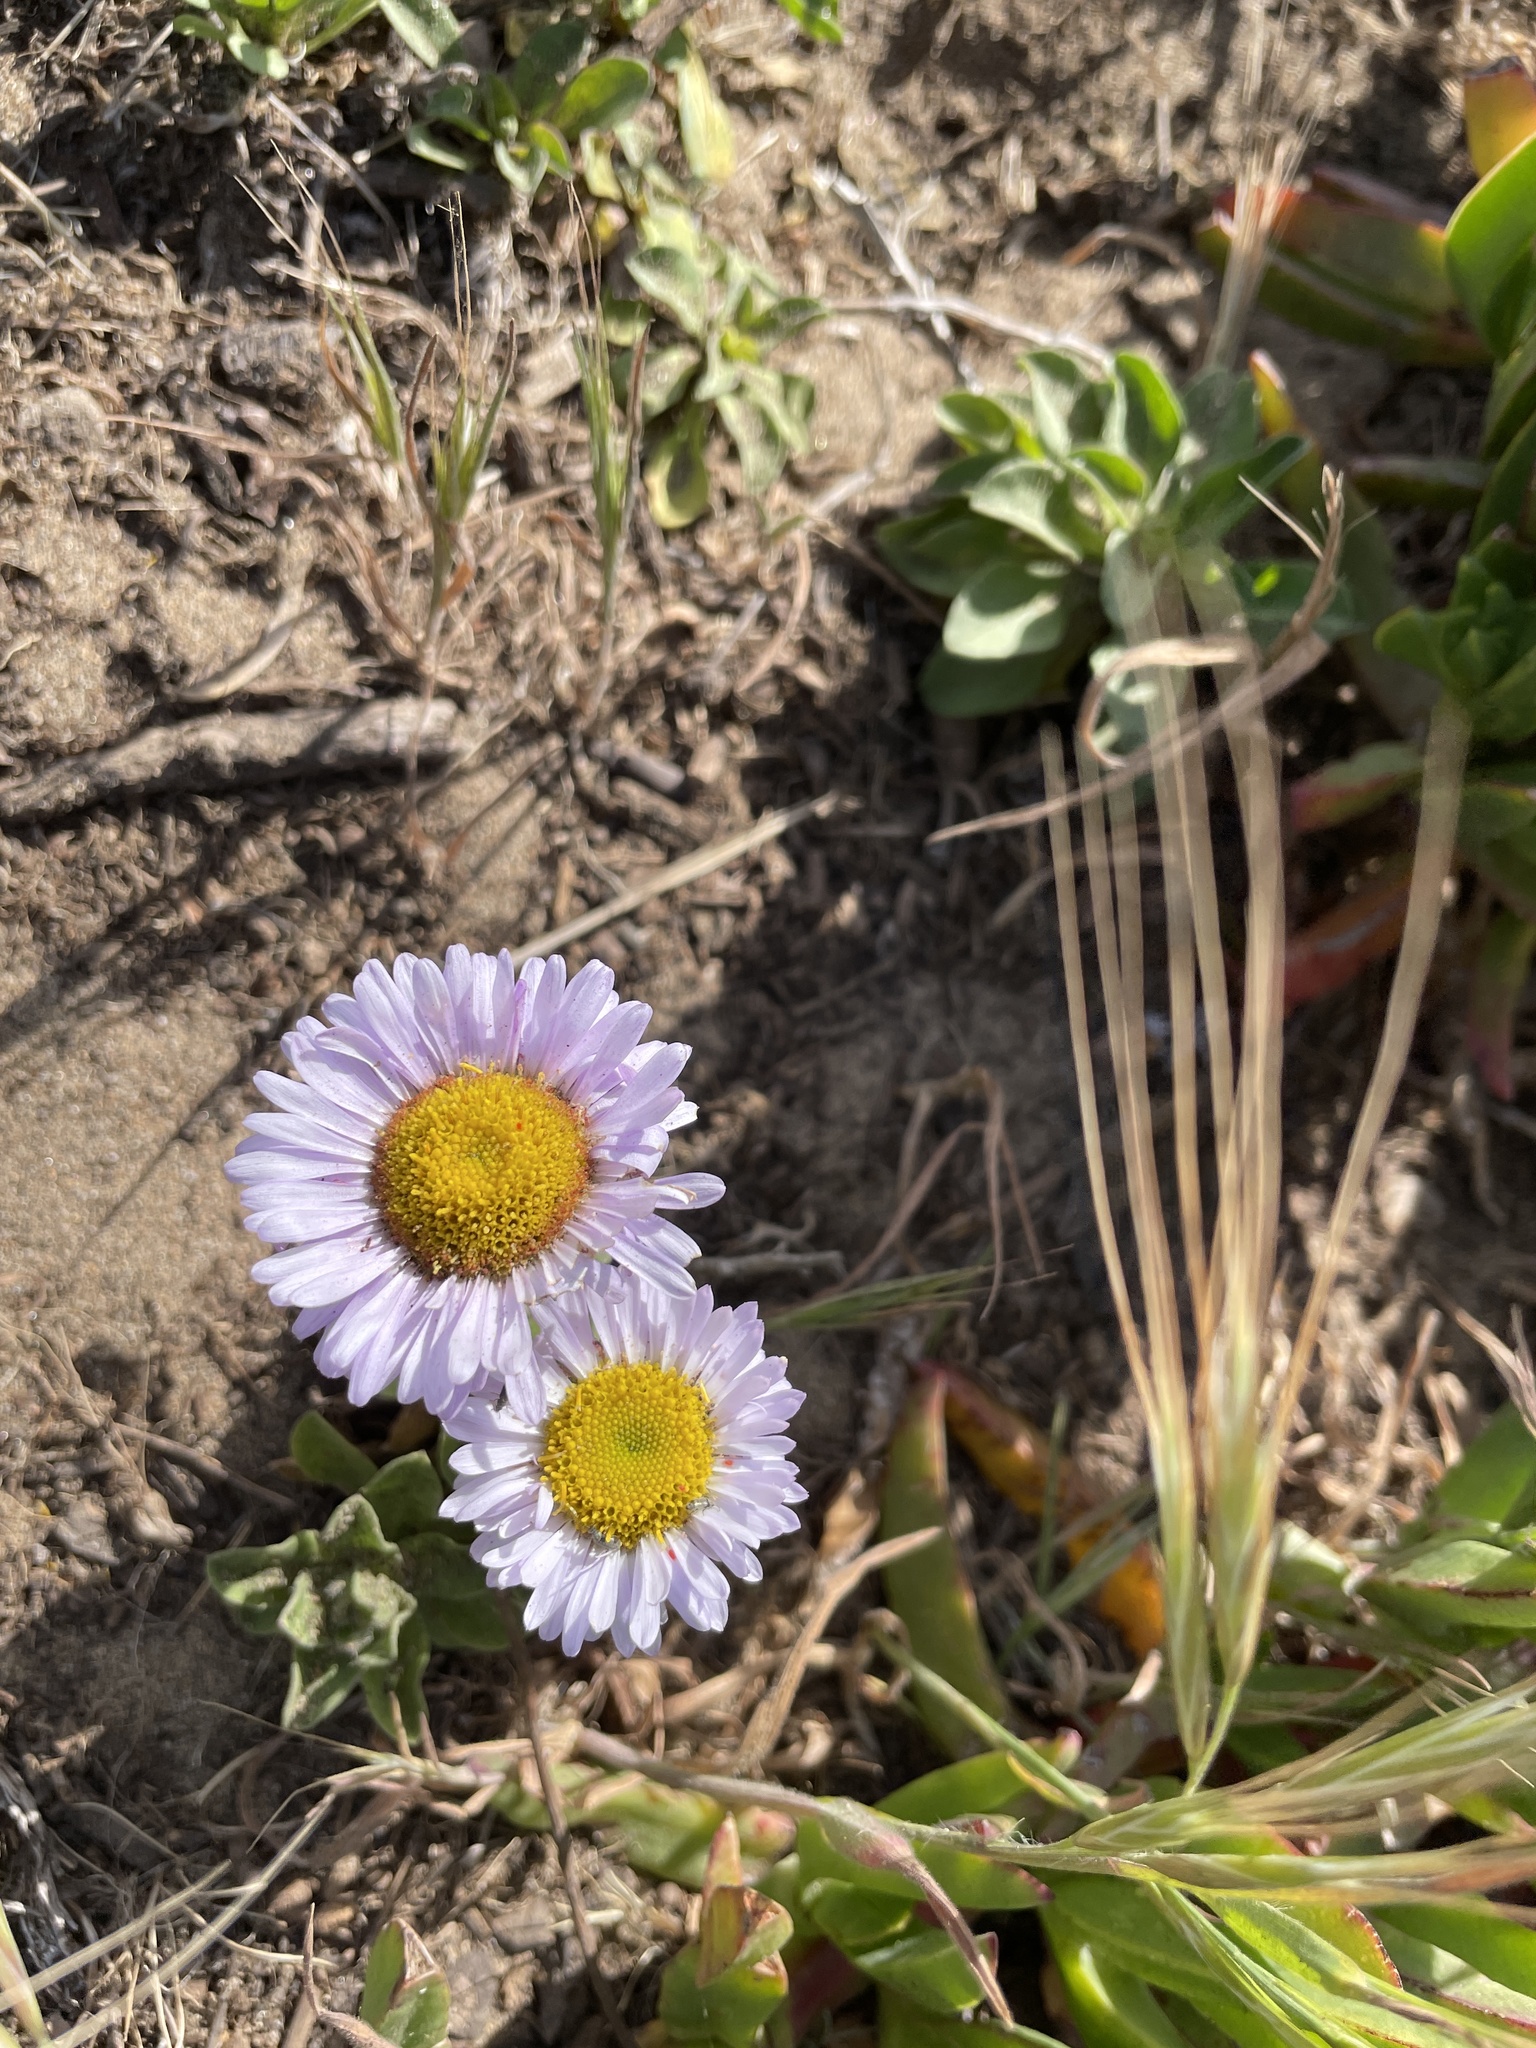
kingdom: Plantae
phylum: Tracheophyta
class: Magnoliopsida
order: Asterales
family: Asteraceae
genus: Erigeron
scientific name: Erigeron glaucus
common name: Seaside daisy
